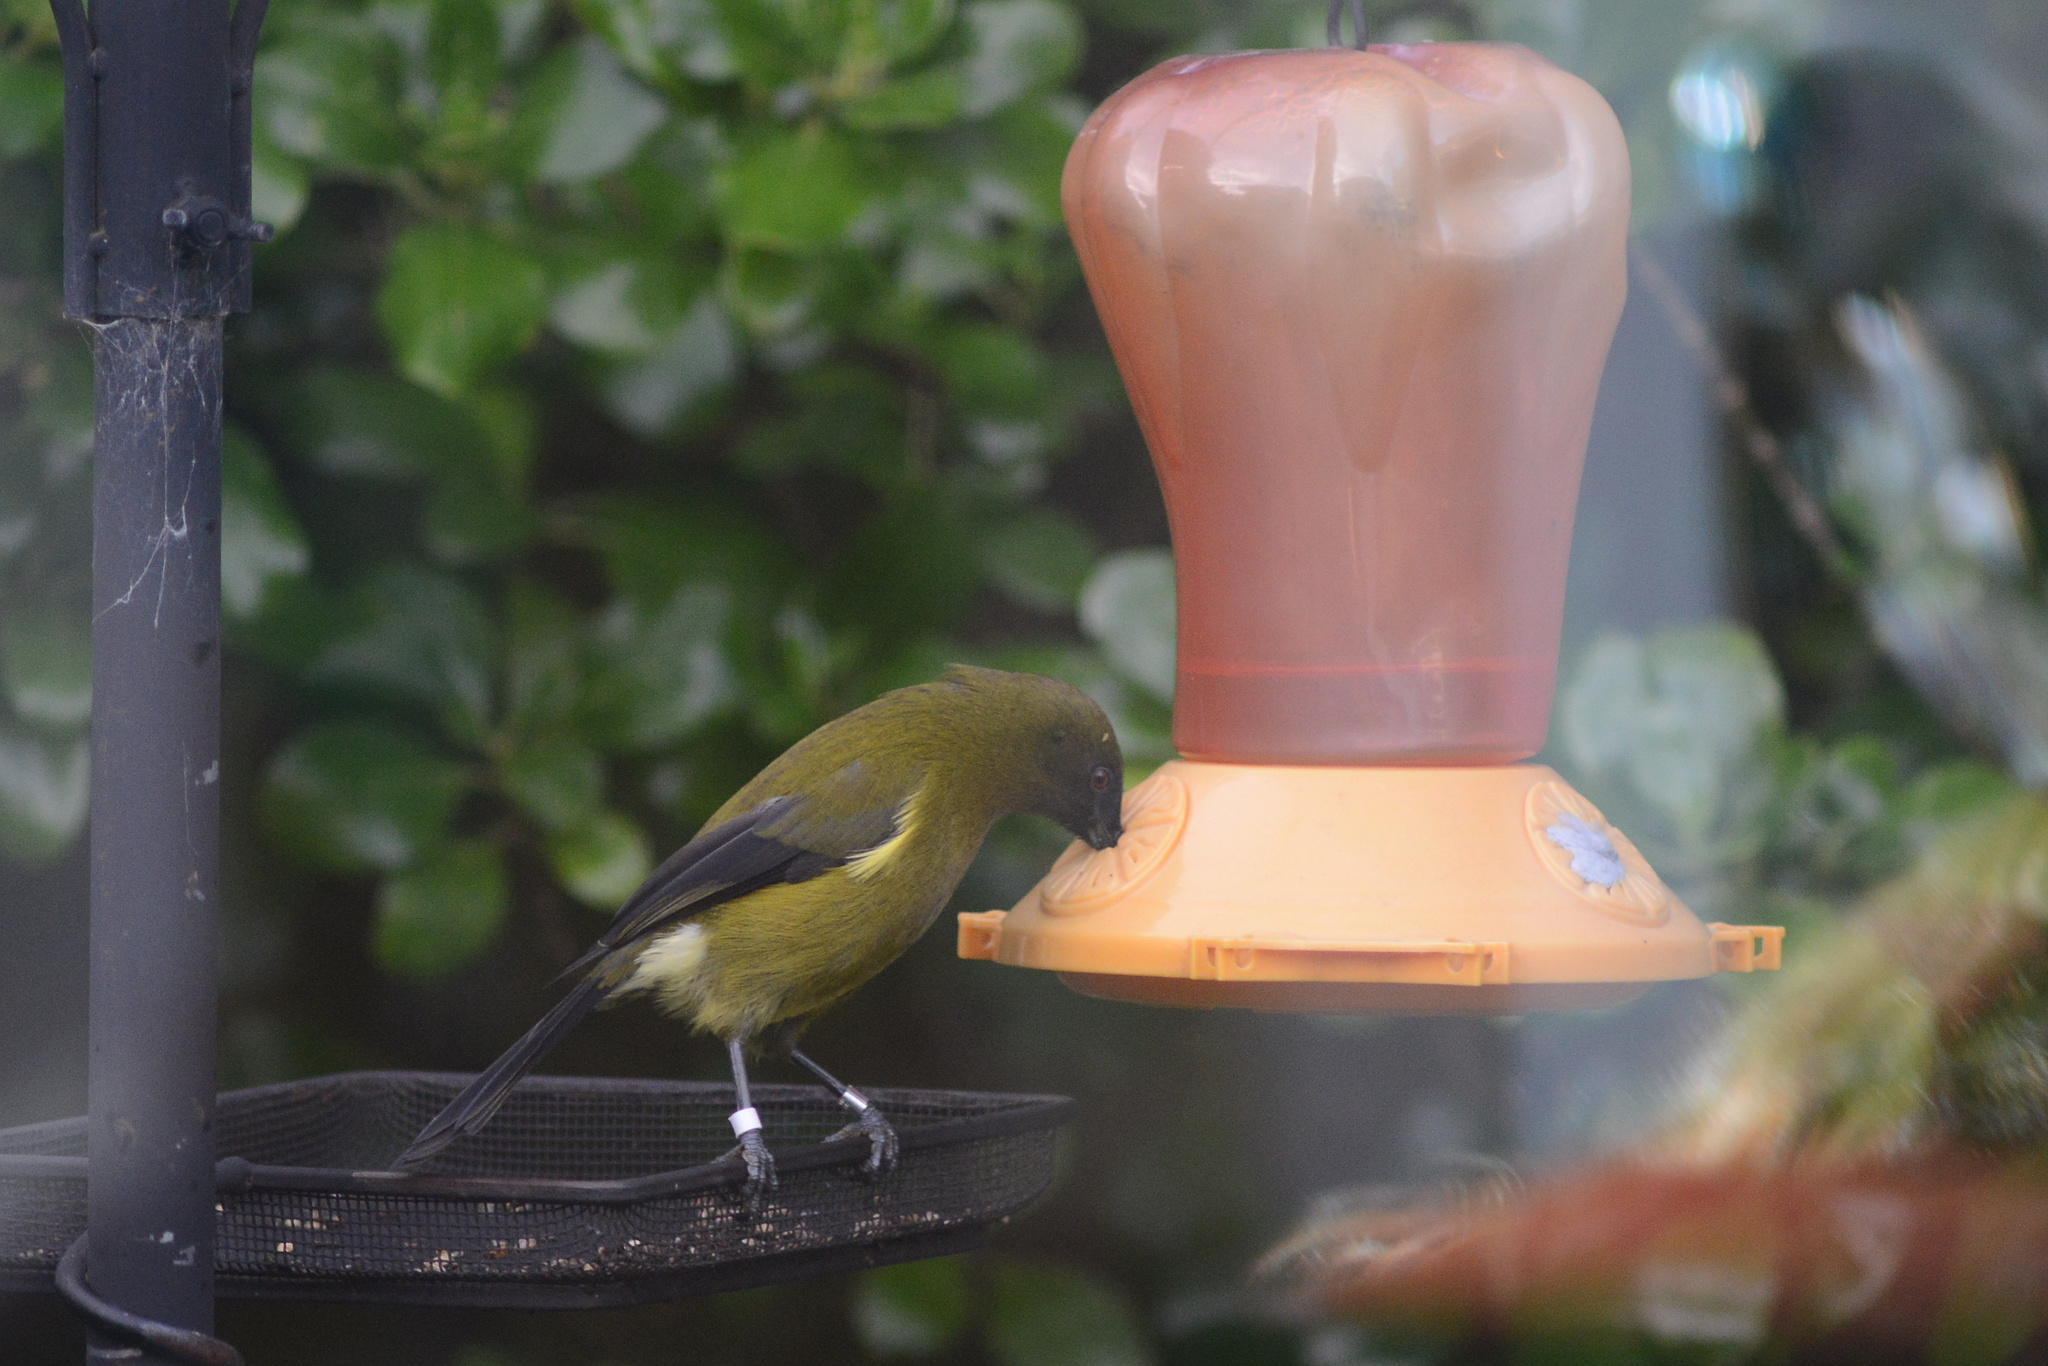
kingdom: Animalia
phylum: Chordata
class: Aves
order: Passeriformes
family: Meliphagidae
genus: Anthornis
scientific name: Anthornis melanura
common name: New zealand bellbird
